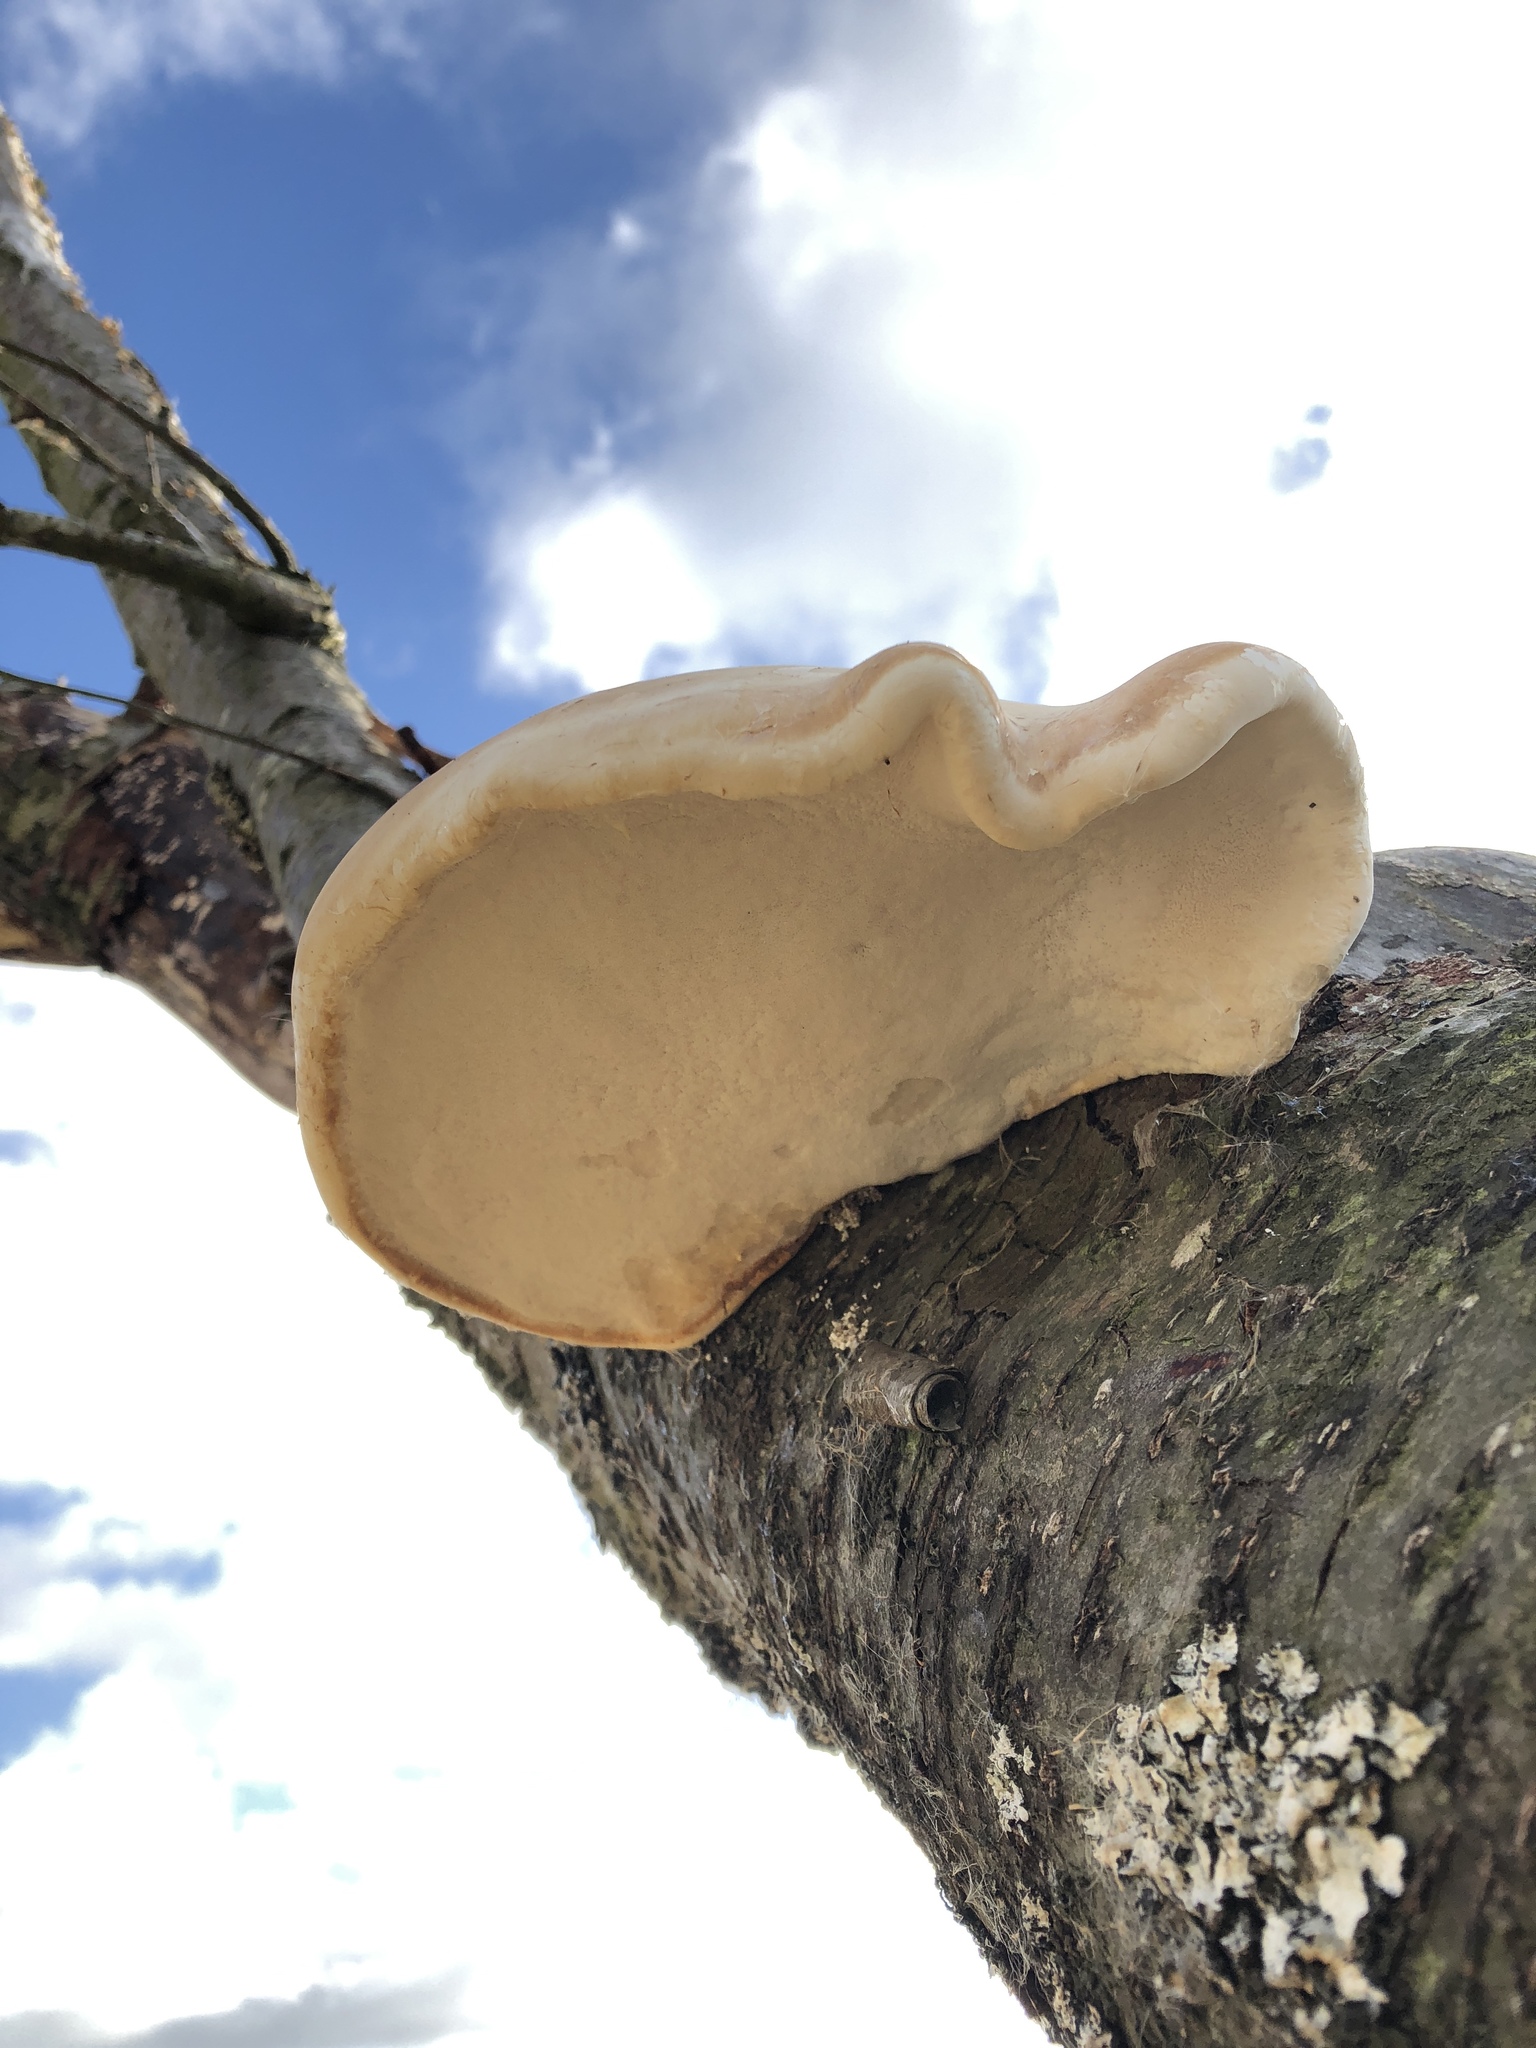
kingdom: Fungi
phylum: Basidiomycota
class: Agaricomycetes
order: Polyporales
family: Fomitopsidaceae
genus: Fomitopsis
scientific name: Fomitopsis betulina
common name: Birch polypore
